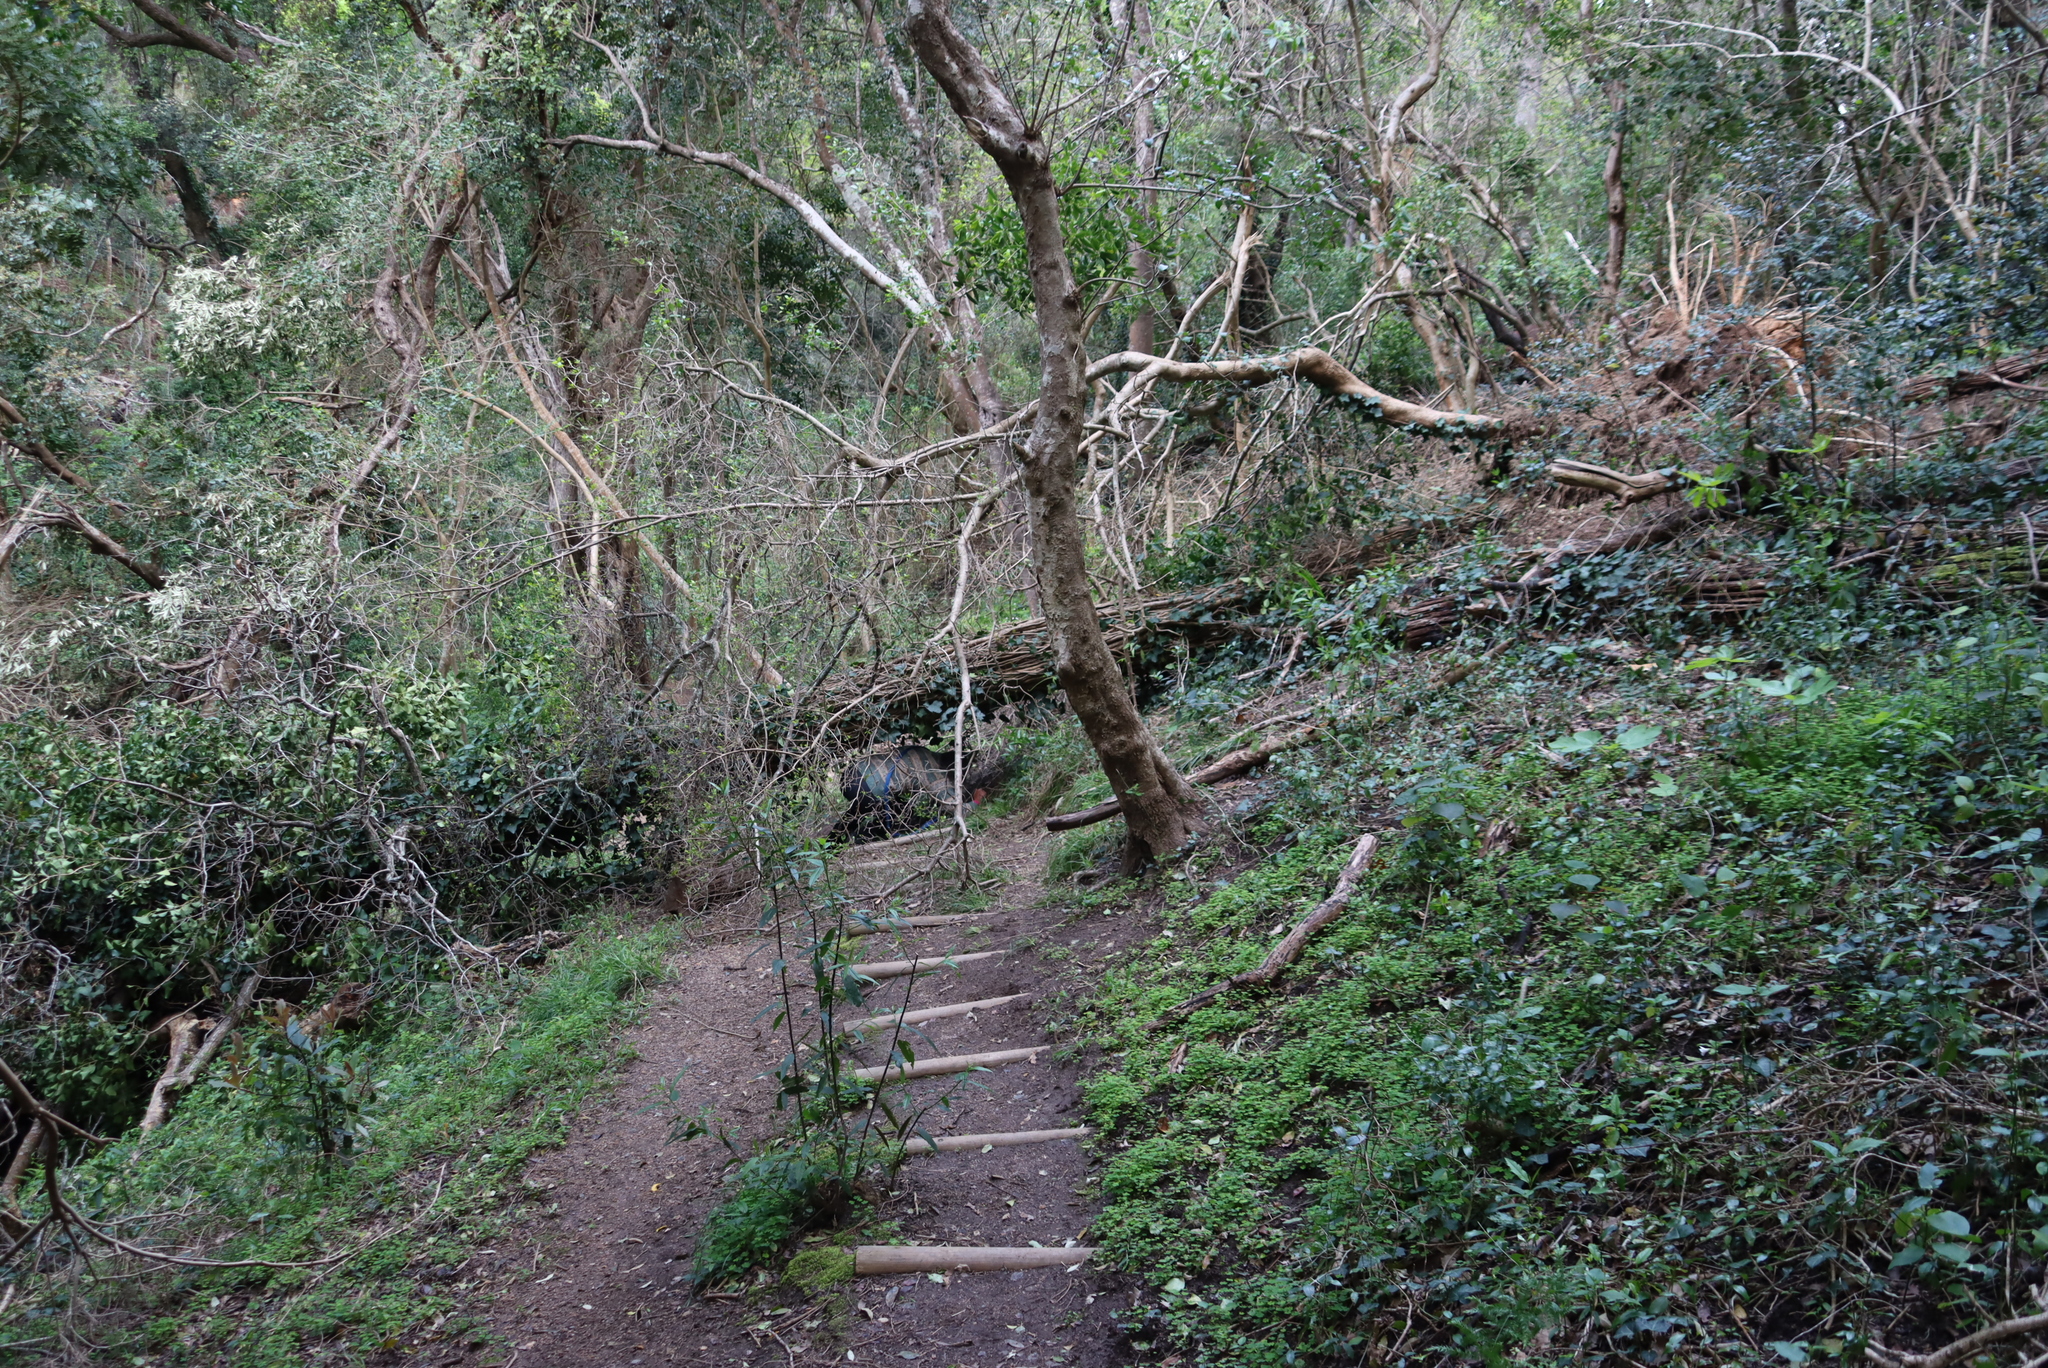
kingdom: Plantae
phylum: Tracheophyta
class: Magnoliopsida
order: Oxalidales
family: Oxalidaceae
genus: Oxalis
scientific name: Oxalis incarnata
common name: Pale pink-sorrel
